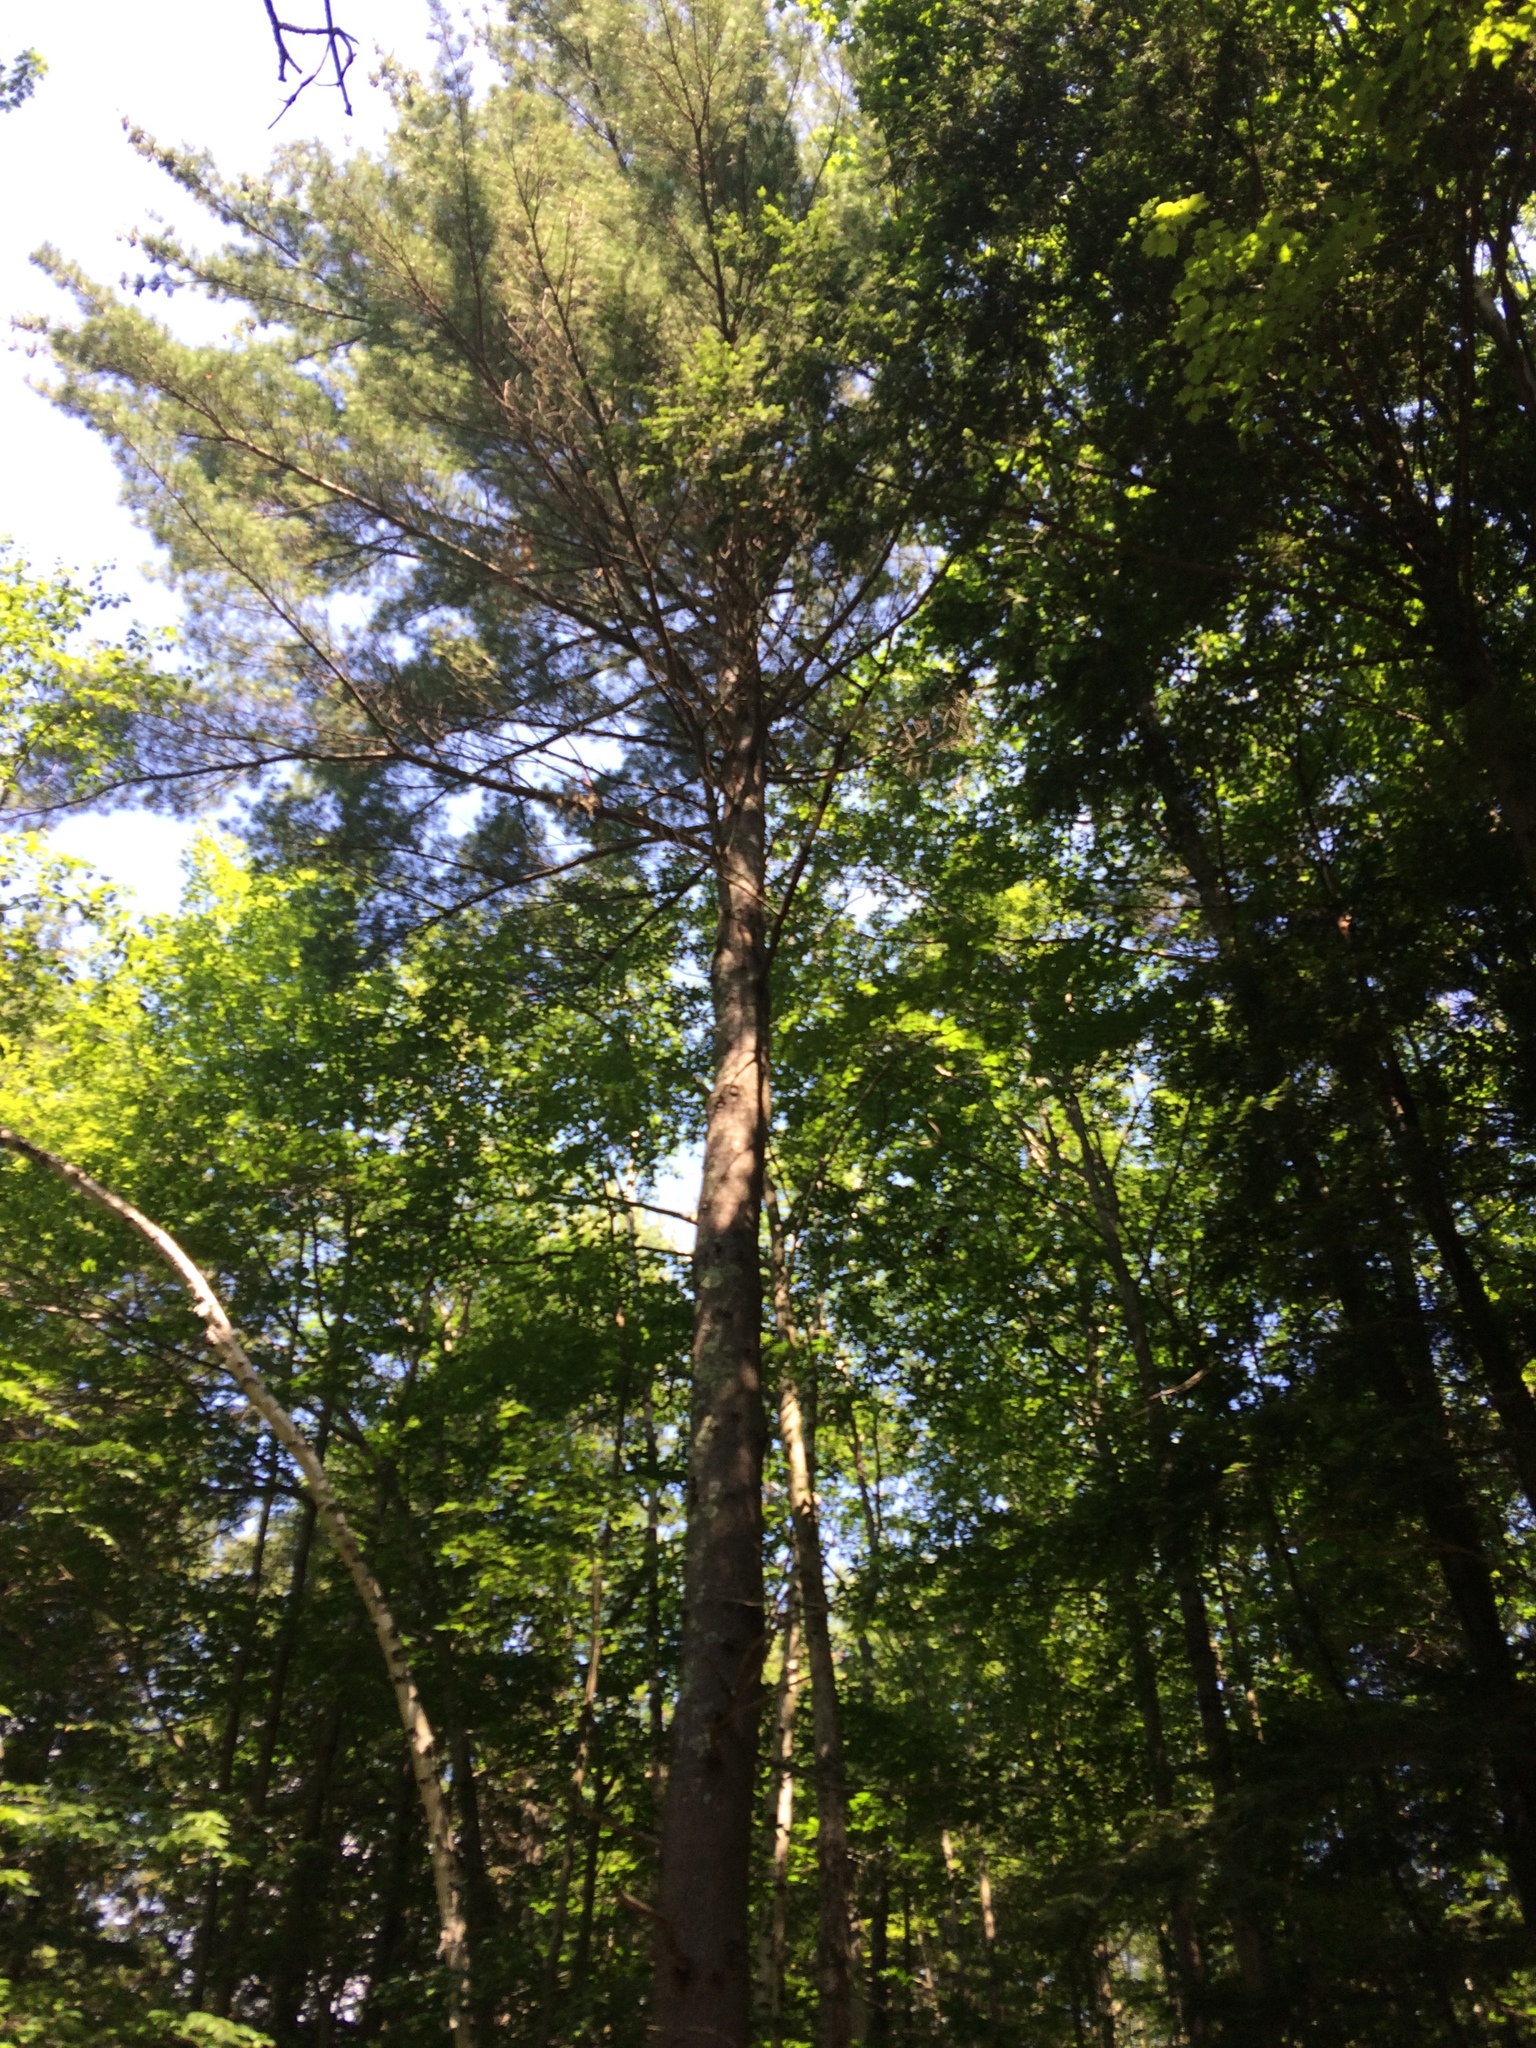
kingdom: Plantae
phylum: Tracheophyta
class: Pinopsida
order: Pinales
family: Pinaceae
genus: Pinus
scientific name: Pinus strobus
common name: Weymouth pine
